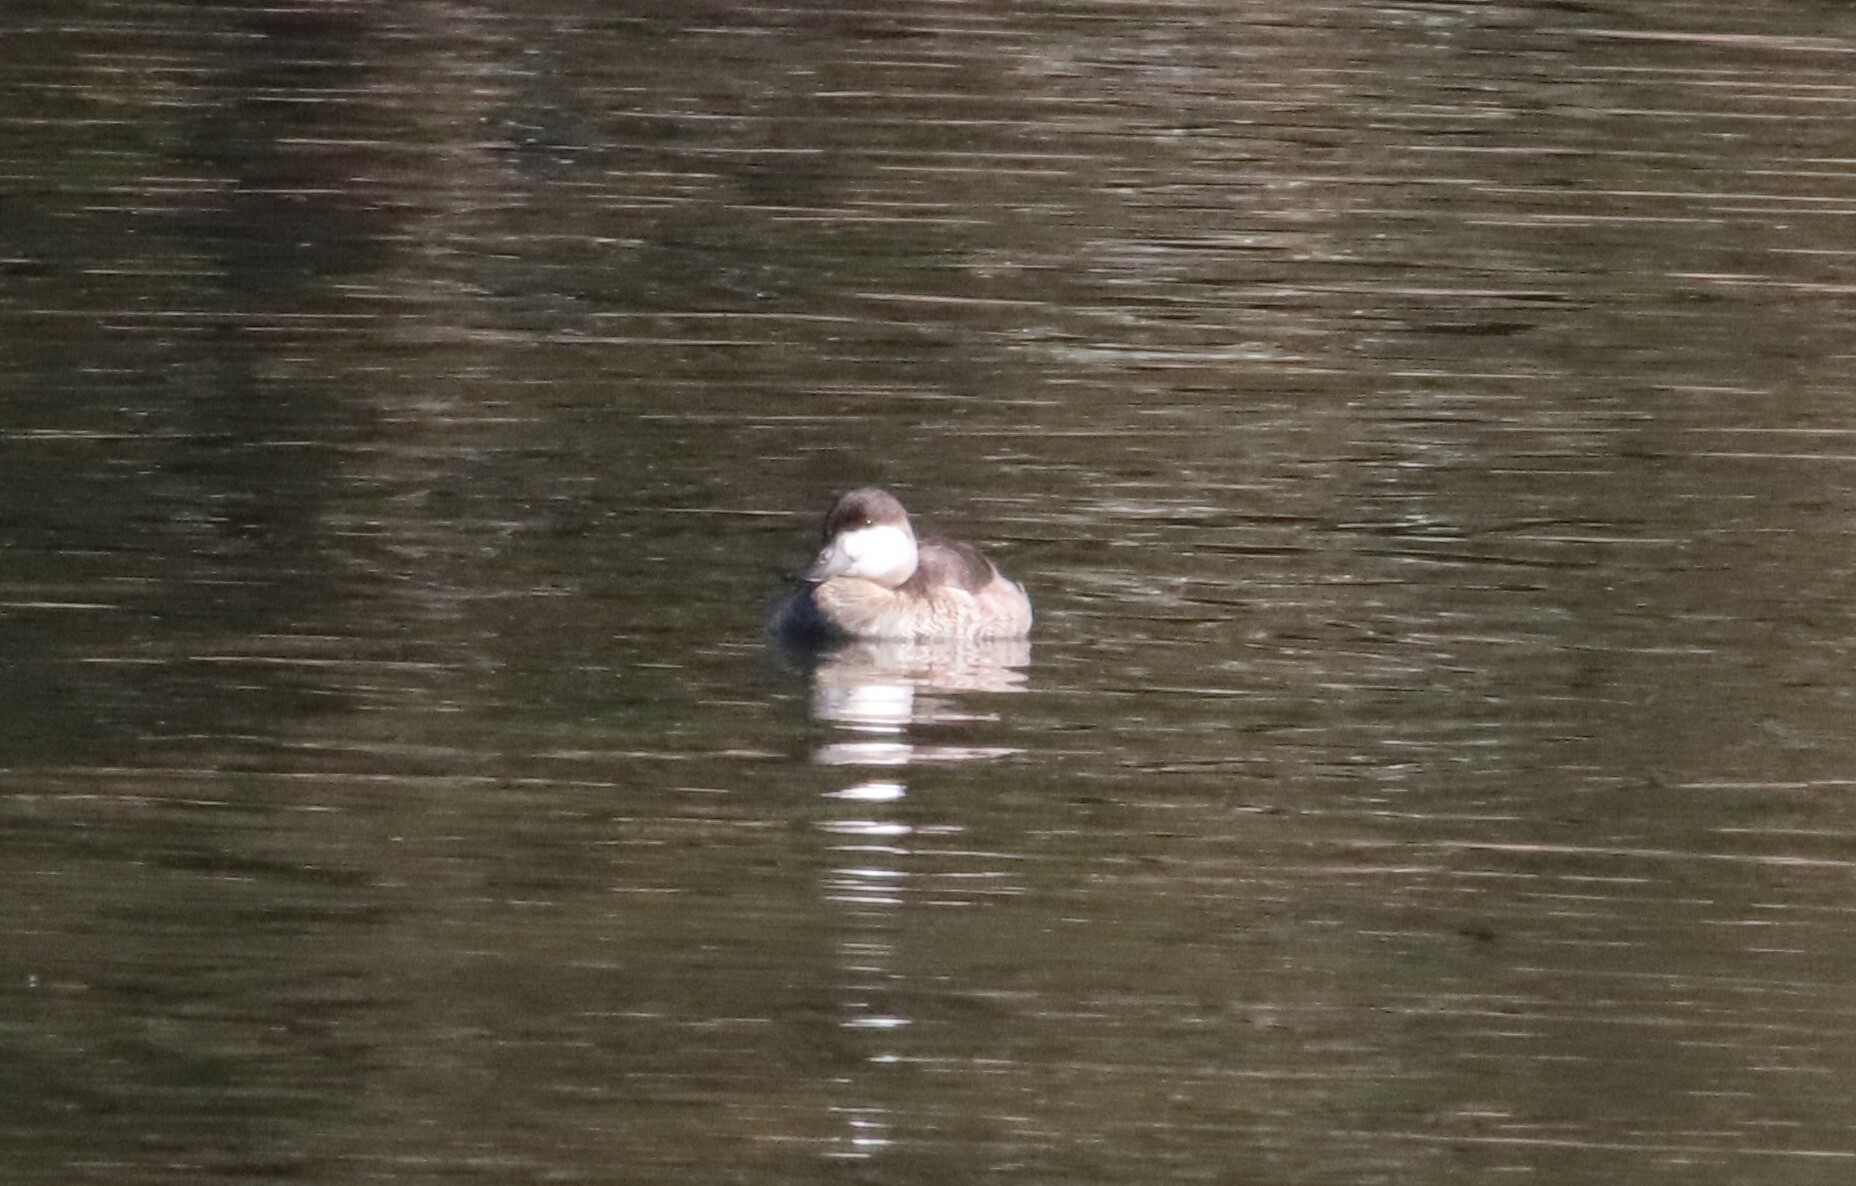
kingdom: Animalia
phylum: Chordata
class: Aves
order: Anseriformes
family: Anatidae
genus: Oxyura
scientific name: Oxyura jamaicensis
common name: Ruddy duck
